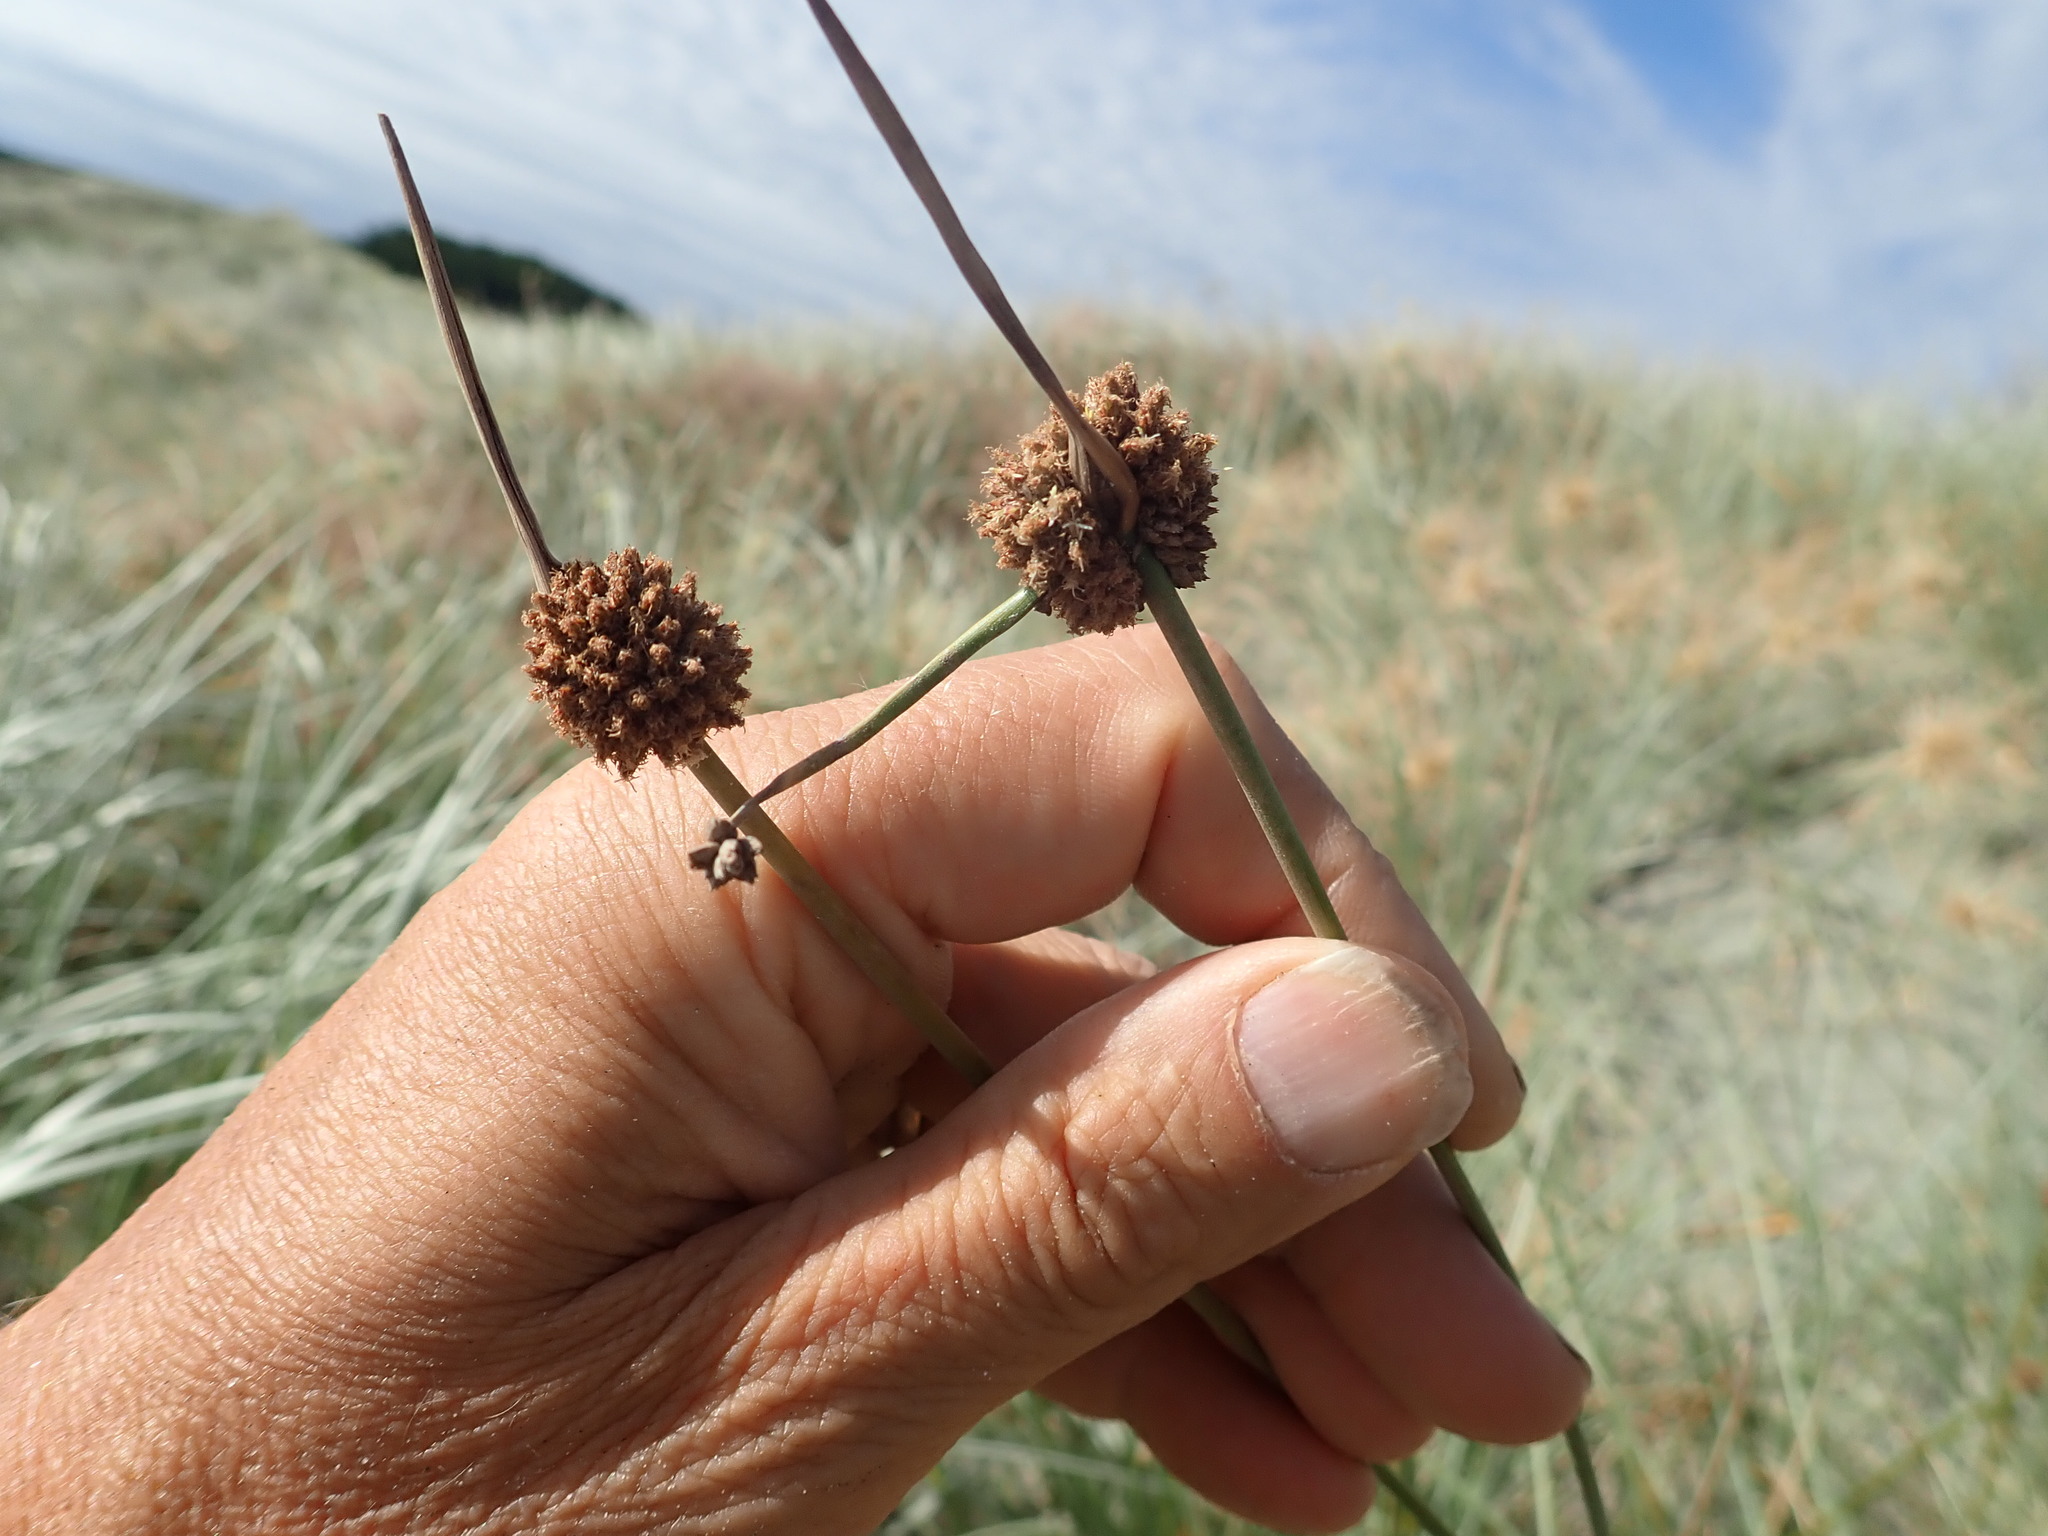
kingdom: Plantae
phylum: Tracheophyta
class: Liliopsida
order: Poales
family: Cyperaceae
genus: Ficinia
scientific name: Ficinia nodosa
